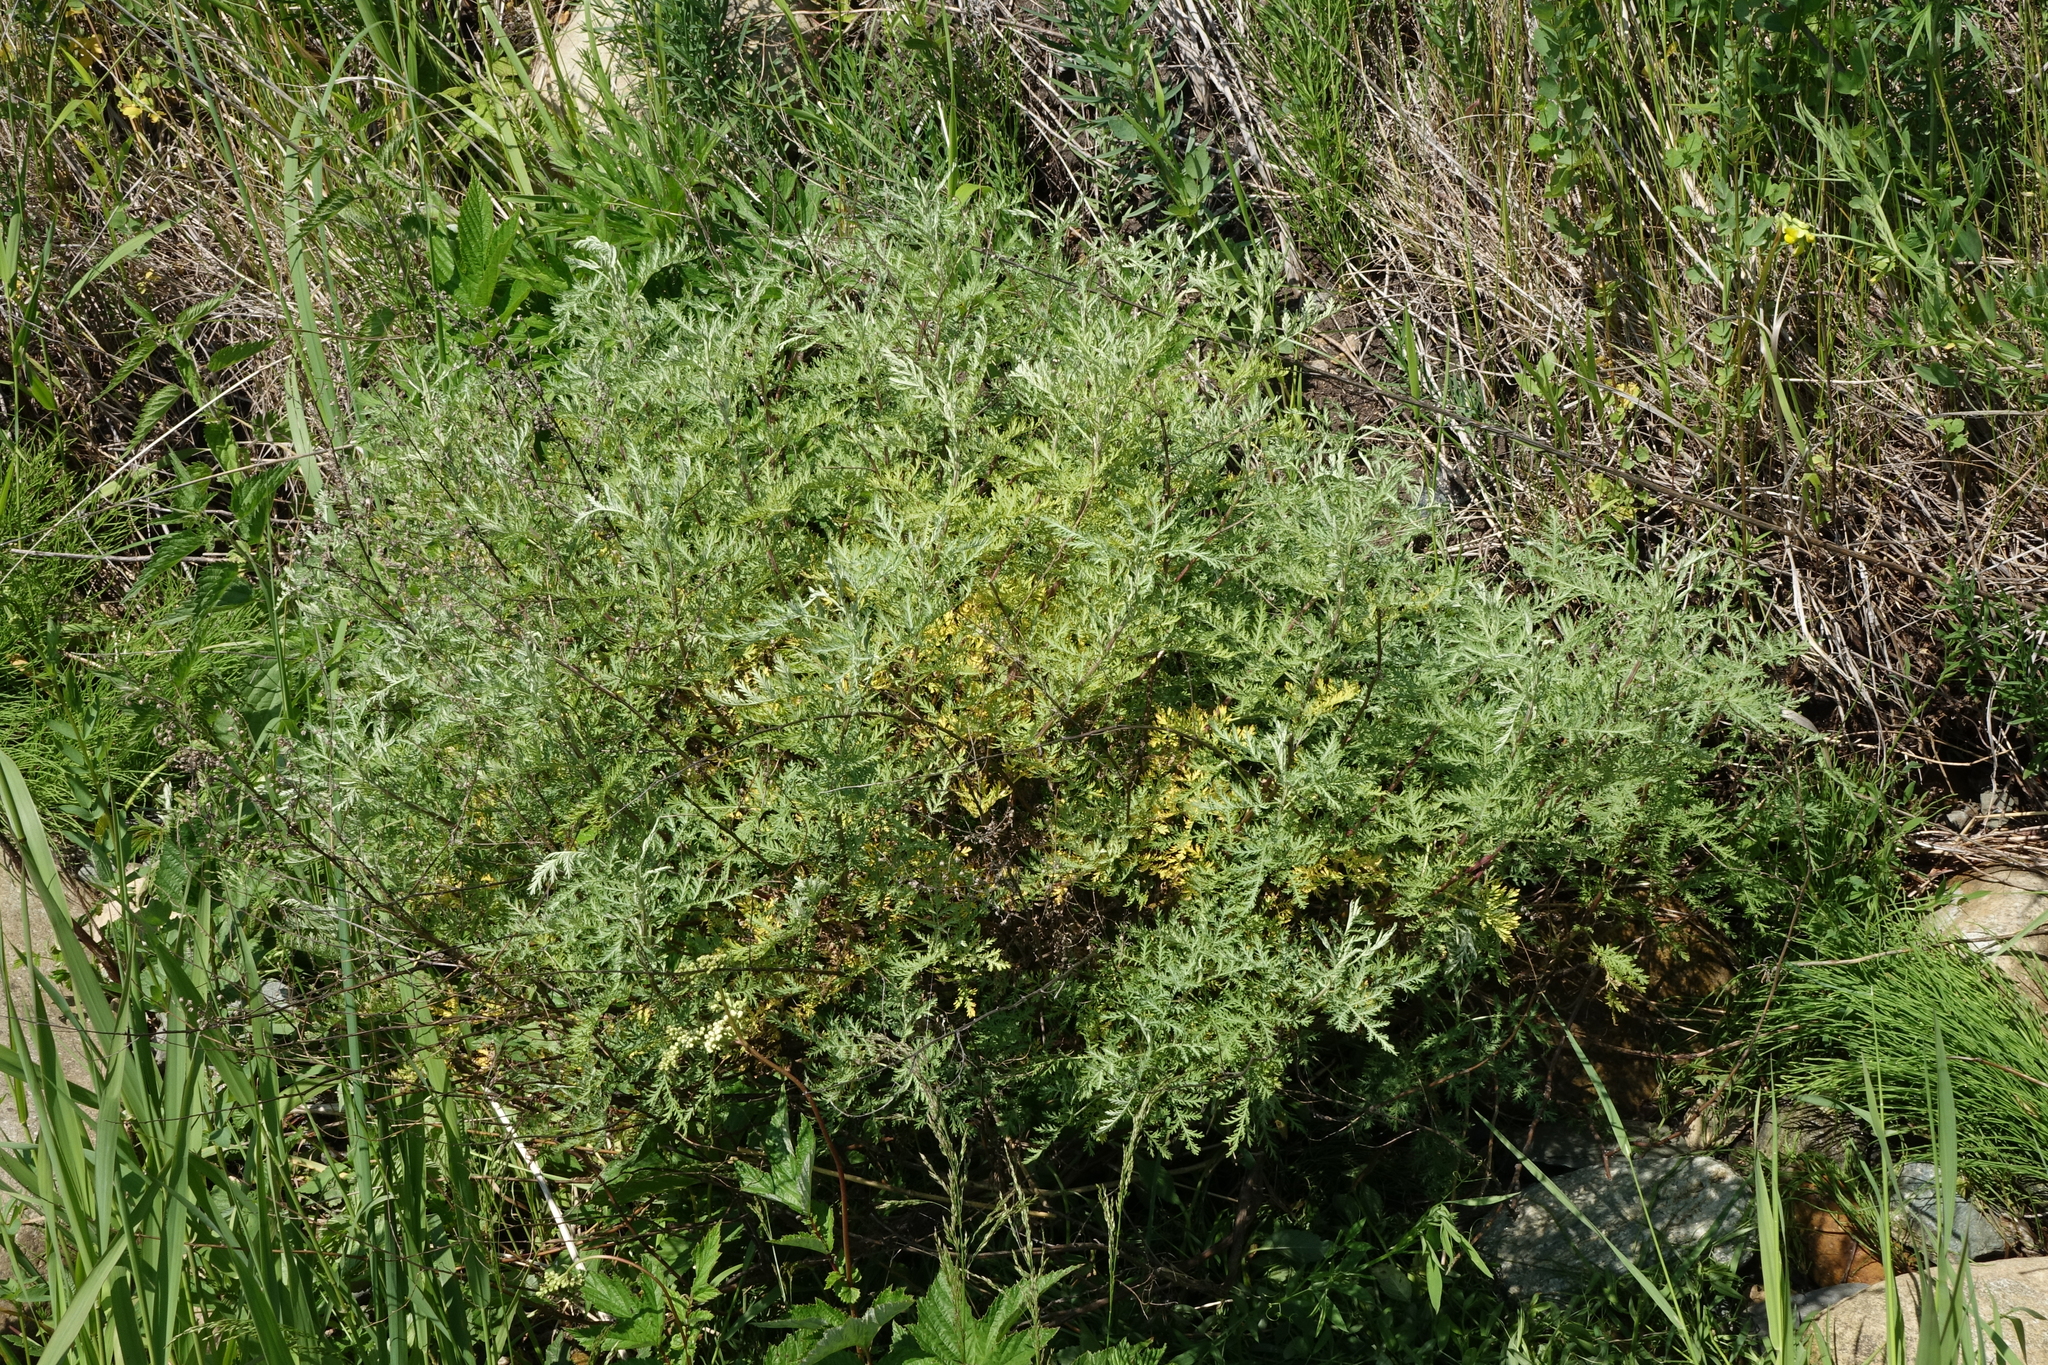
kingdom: Plantae
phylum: Tracheophyta
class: Magnoliopsida
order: Asterales
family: Asteraceae
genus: Artemisia
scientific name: Artemisia gmelinii
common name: Gmelin's wormwood
